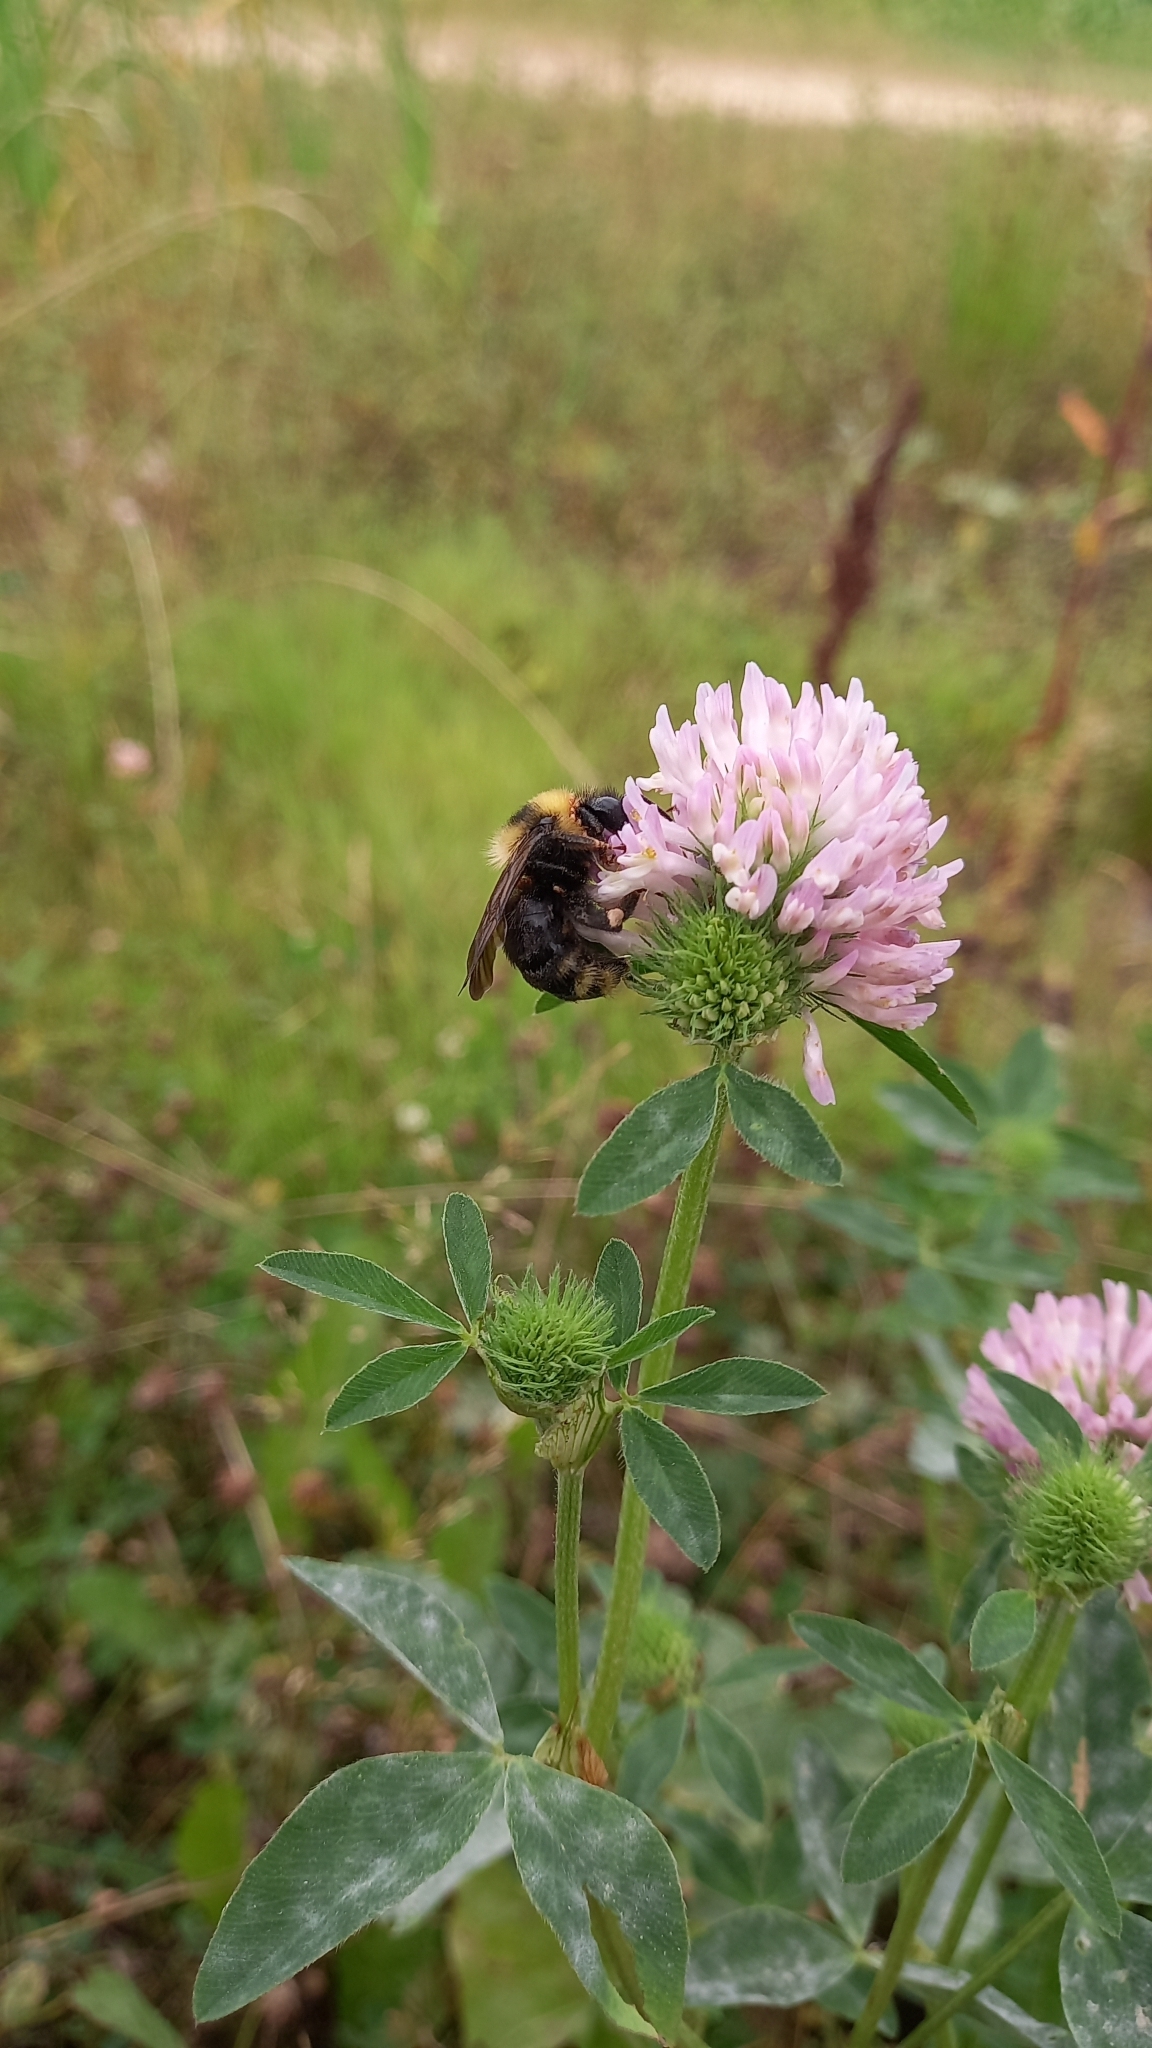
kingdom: Animalia
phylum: Arthropoda
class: Insecta
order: Hymenoptera
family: Apidae
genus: Bombus
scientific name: Bombus campestris
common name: Field cuckoo-bee
